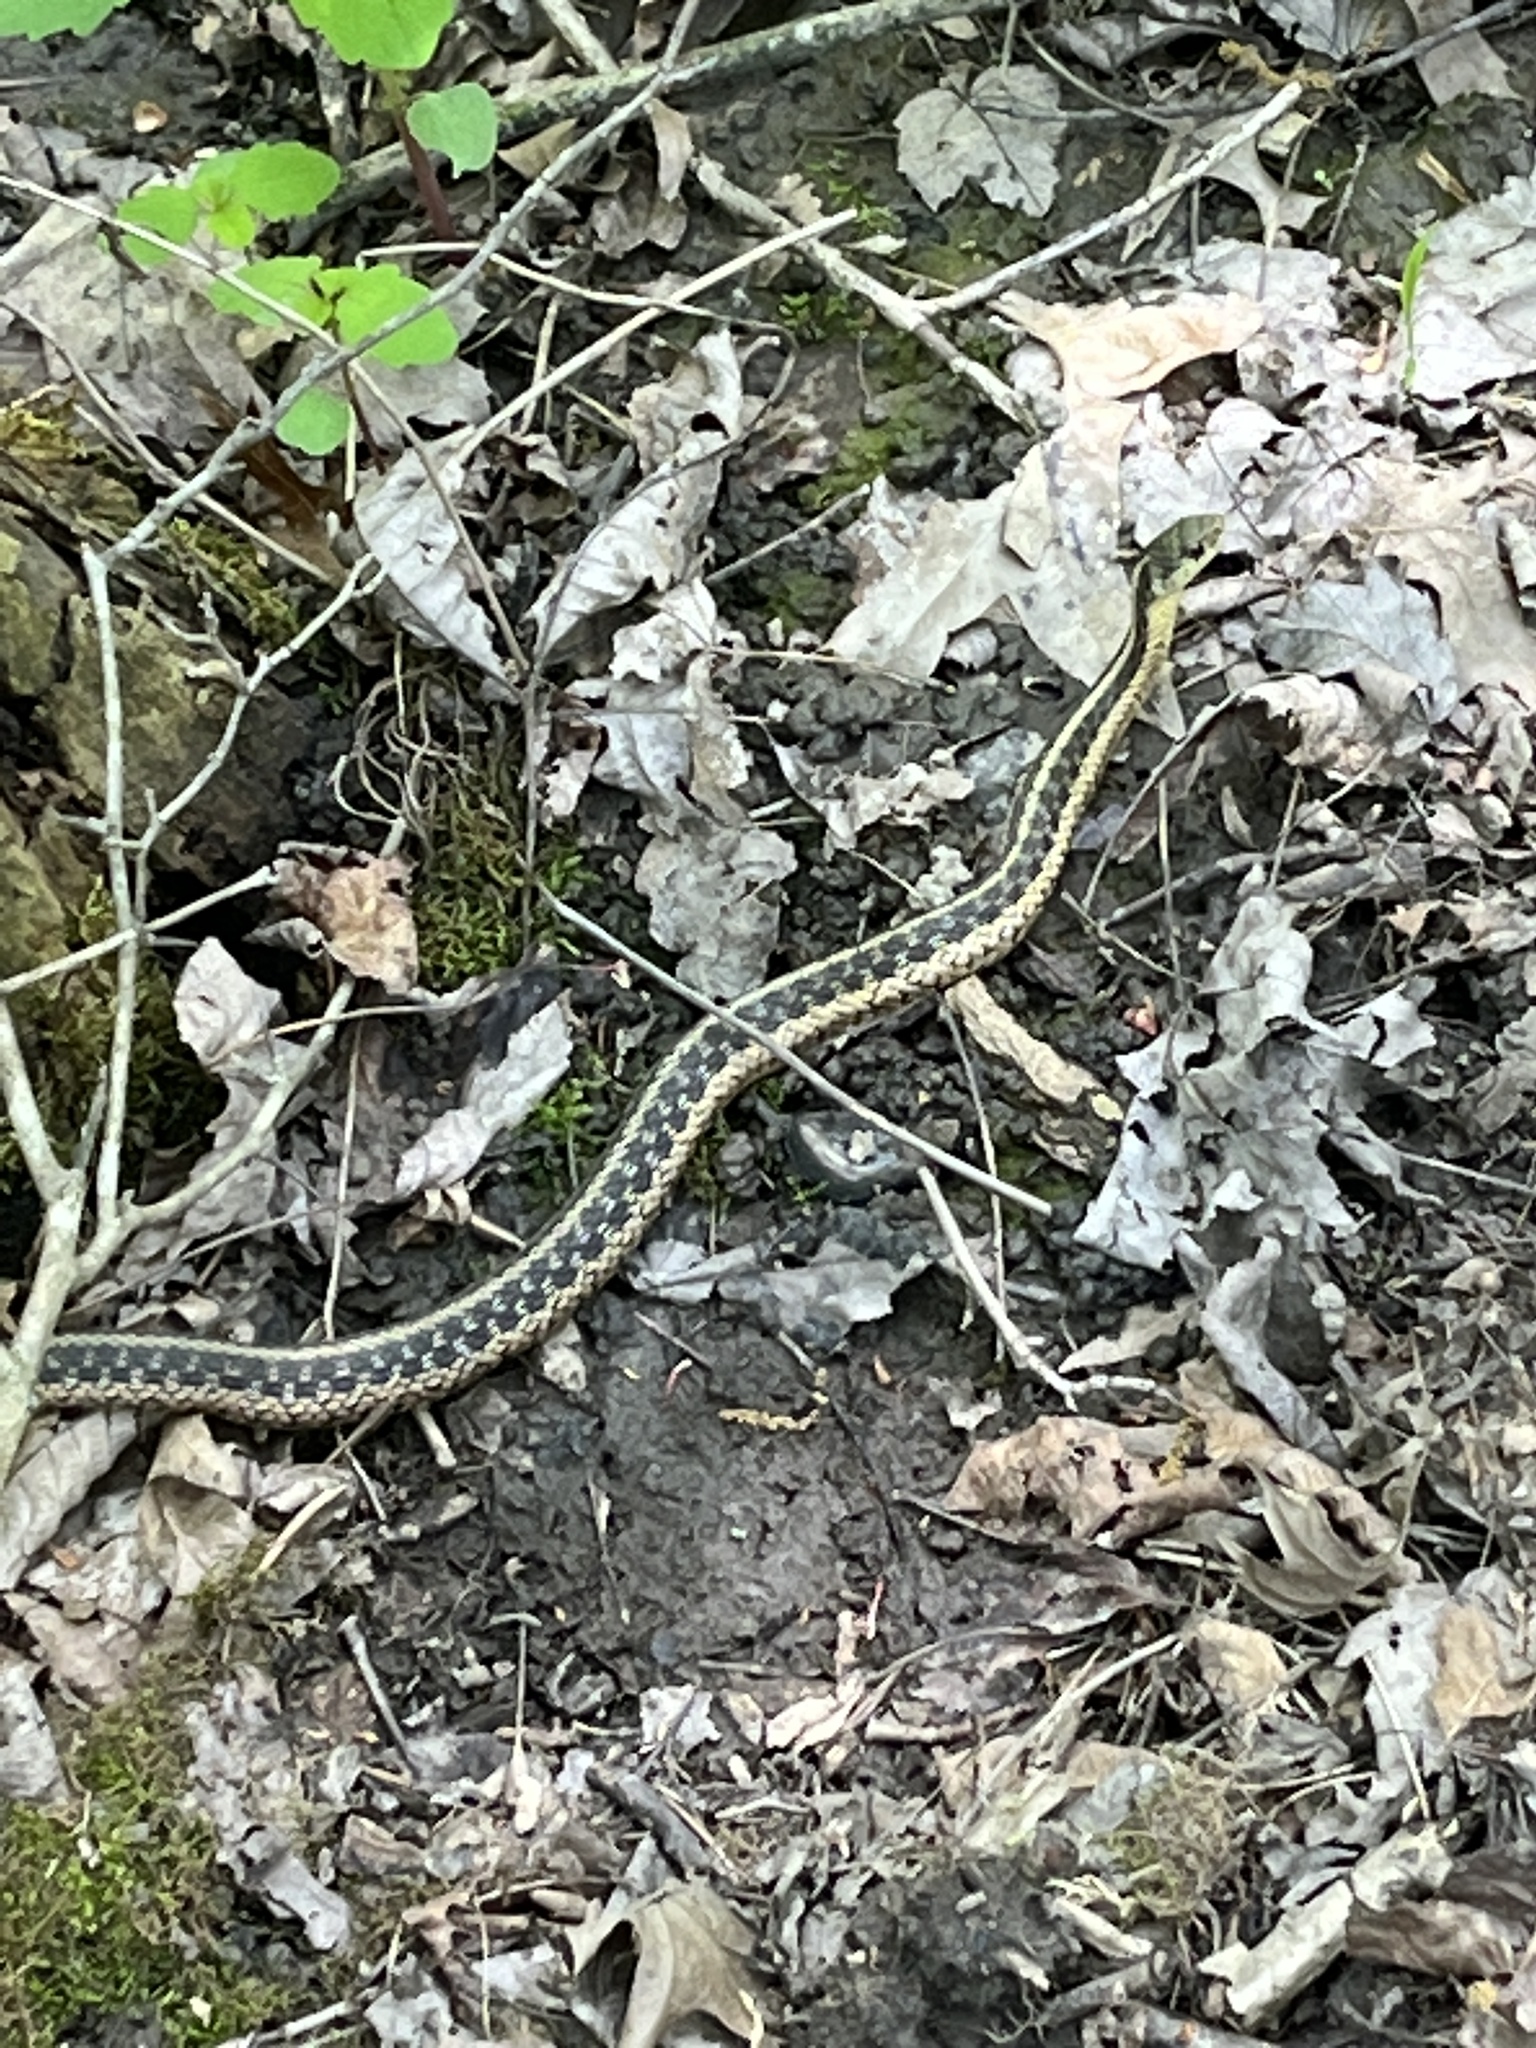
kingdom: Animalia
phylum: Chordata
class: Squamata
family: Colubridae
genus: Thamnophis
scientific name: Thamnophis sirtalis
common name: Common garter snake
